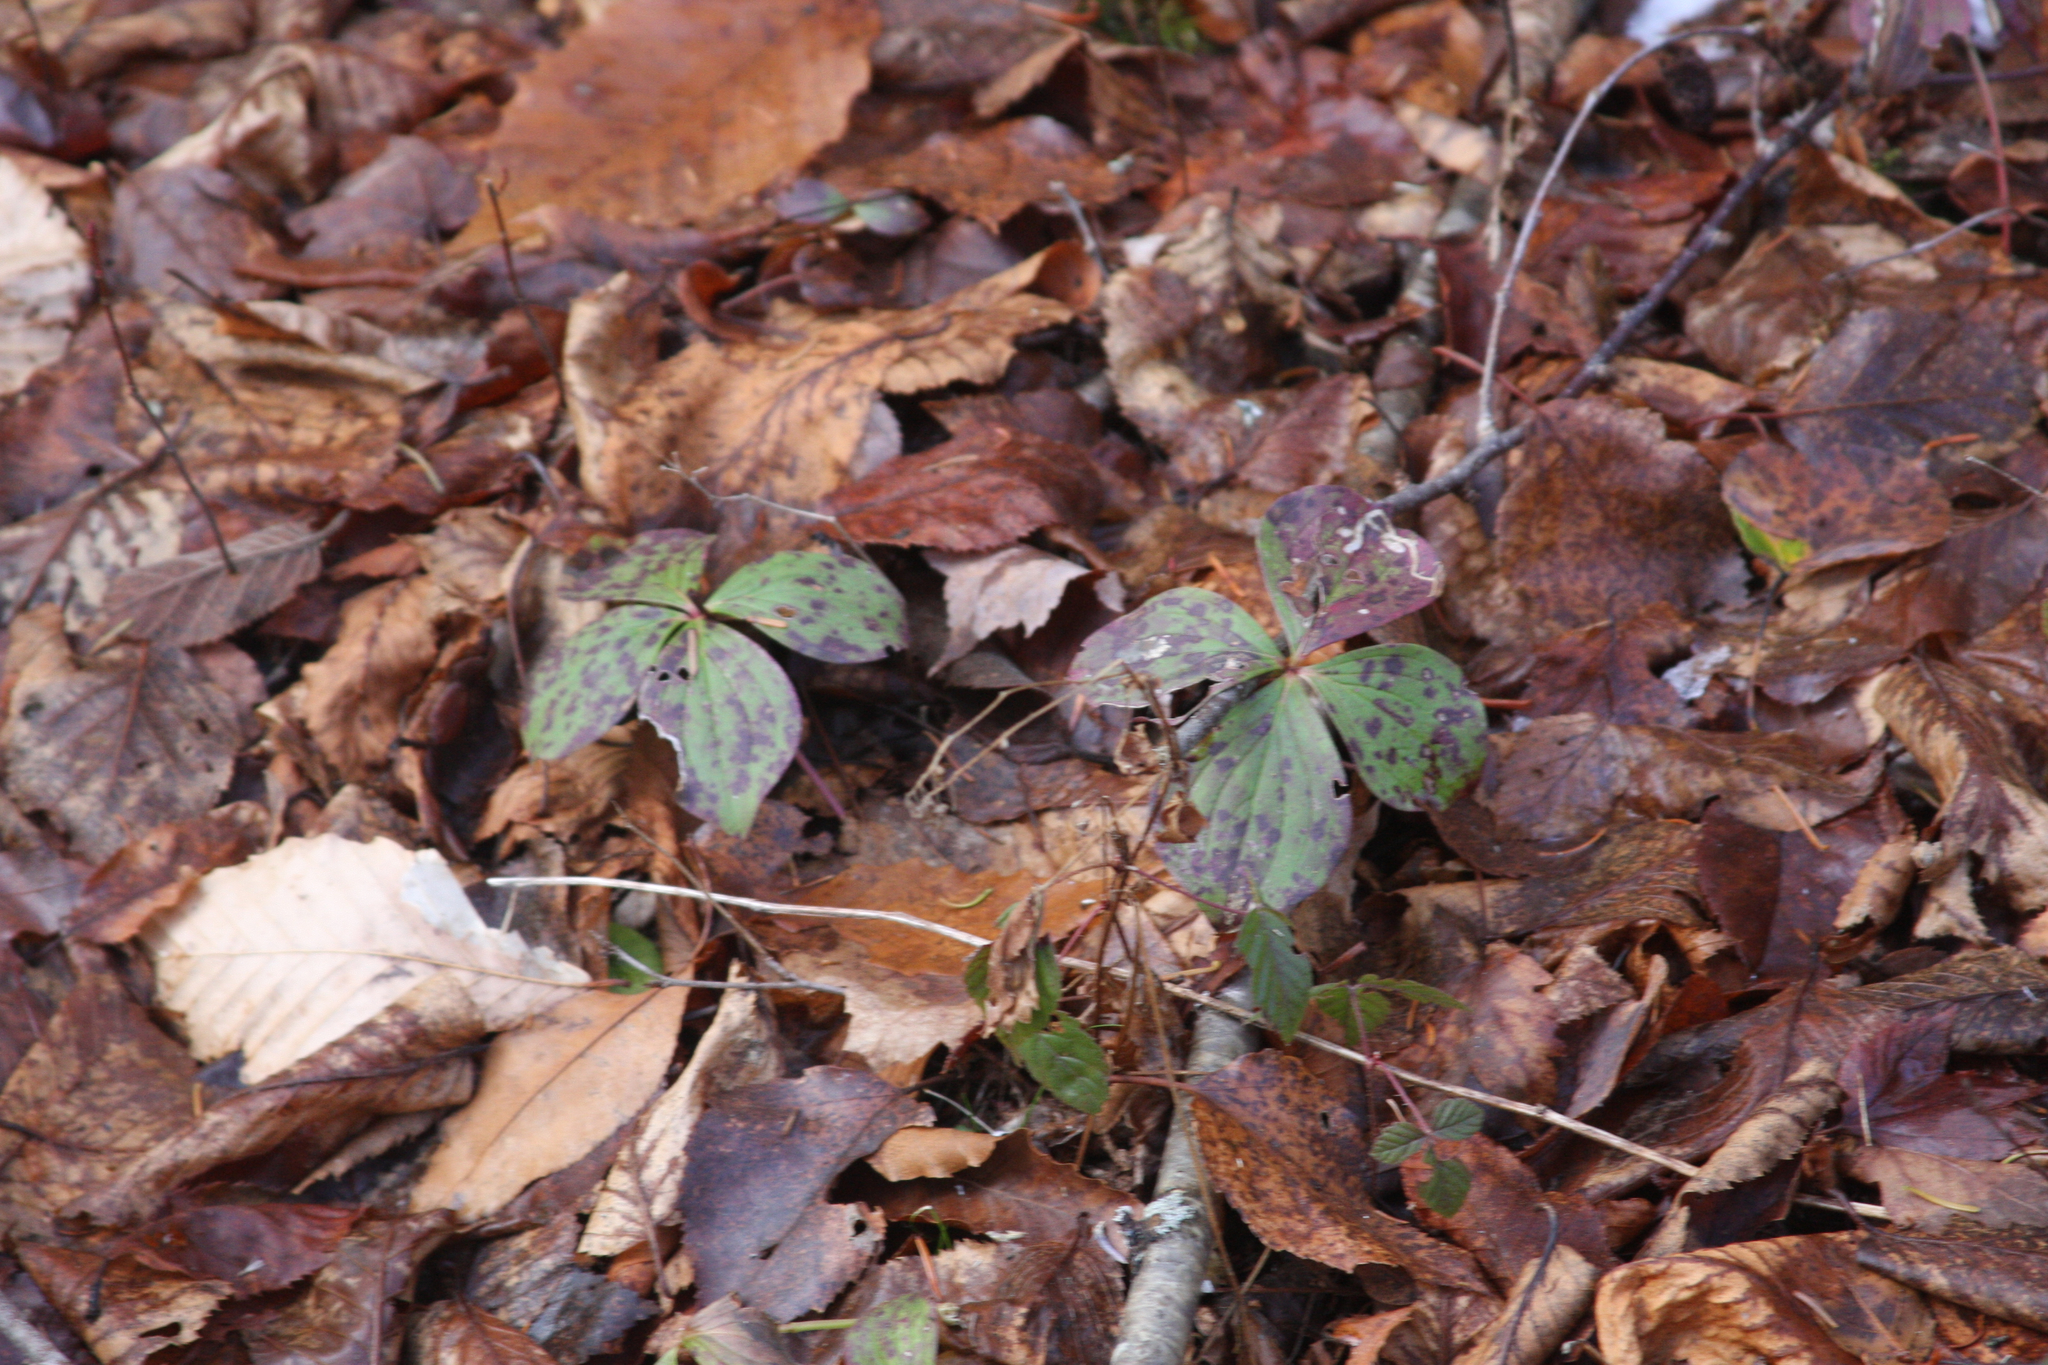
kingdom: Plantae
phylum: Tracheophyta
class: Magnoliopsida
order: Cornales
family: Cornaceae
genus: Cornus
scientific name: Cornus canadensis
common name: Creeping dogwood
